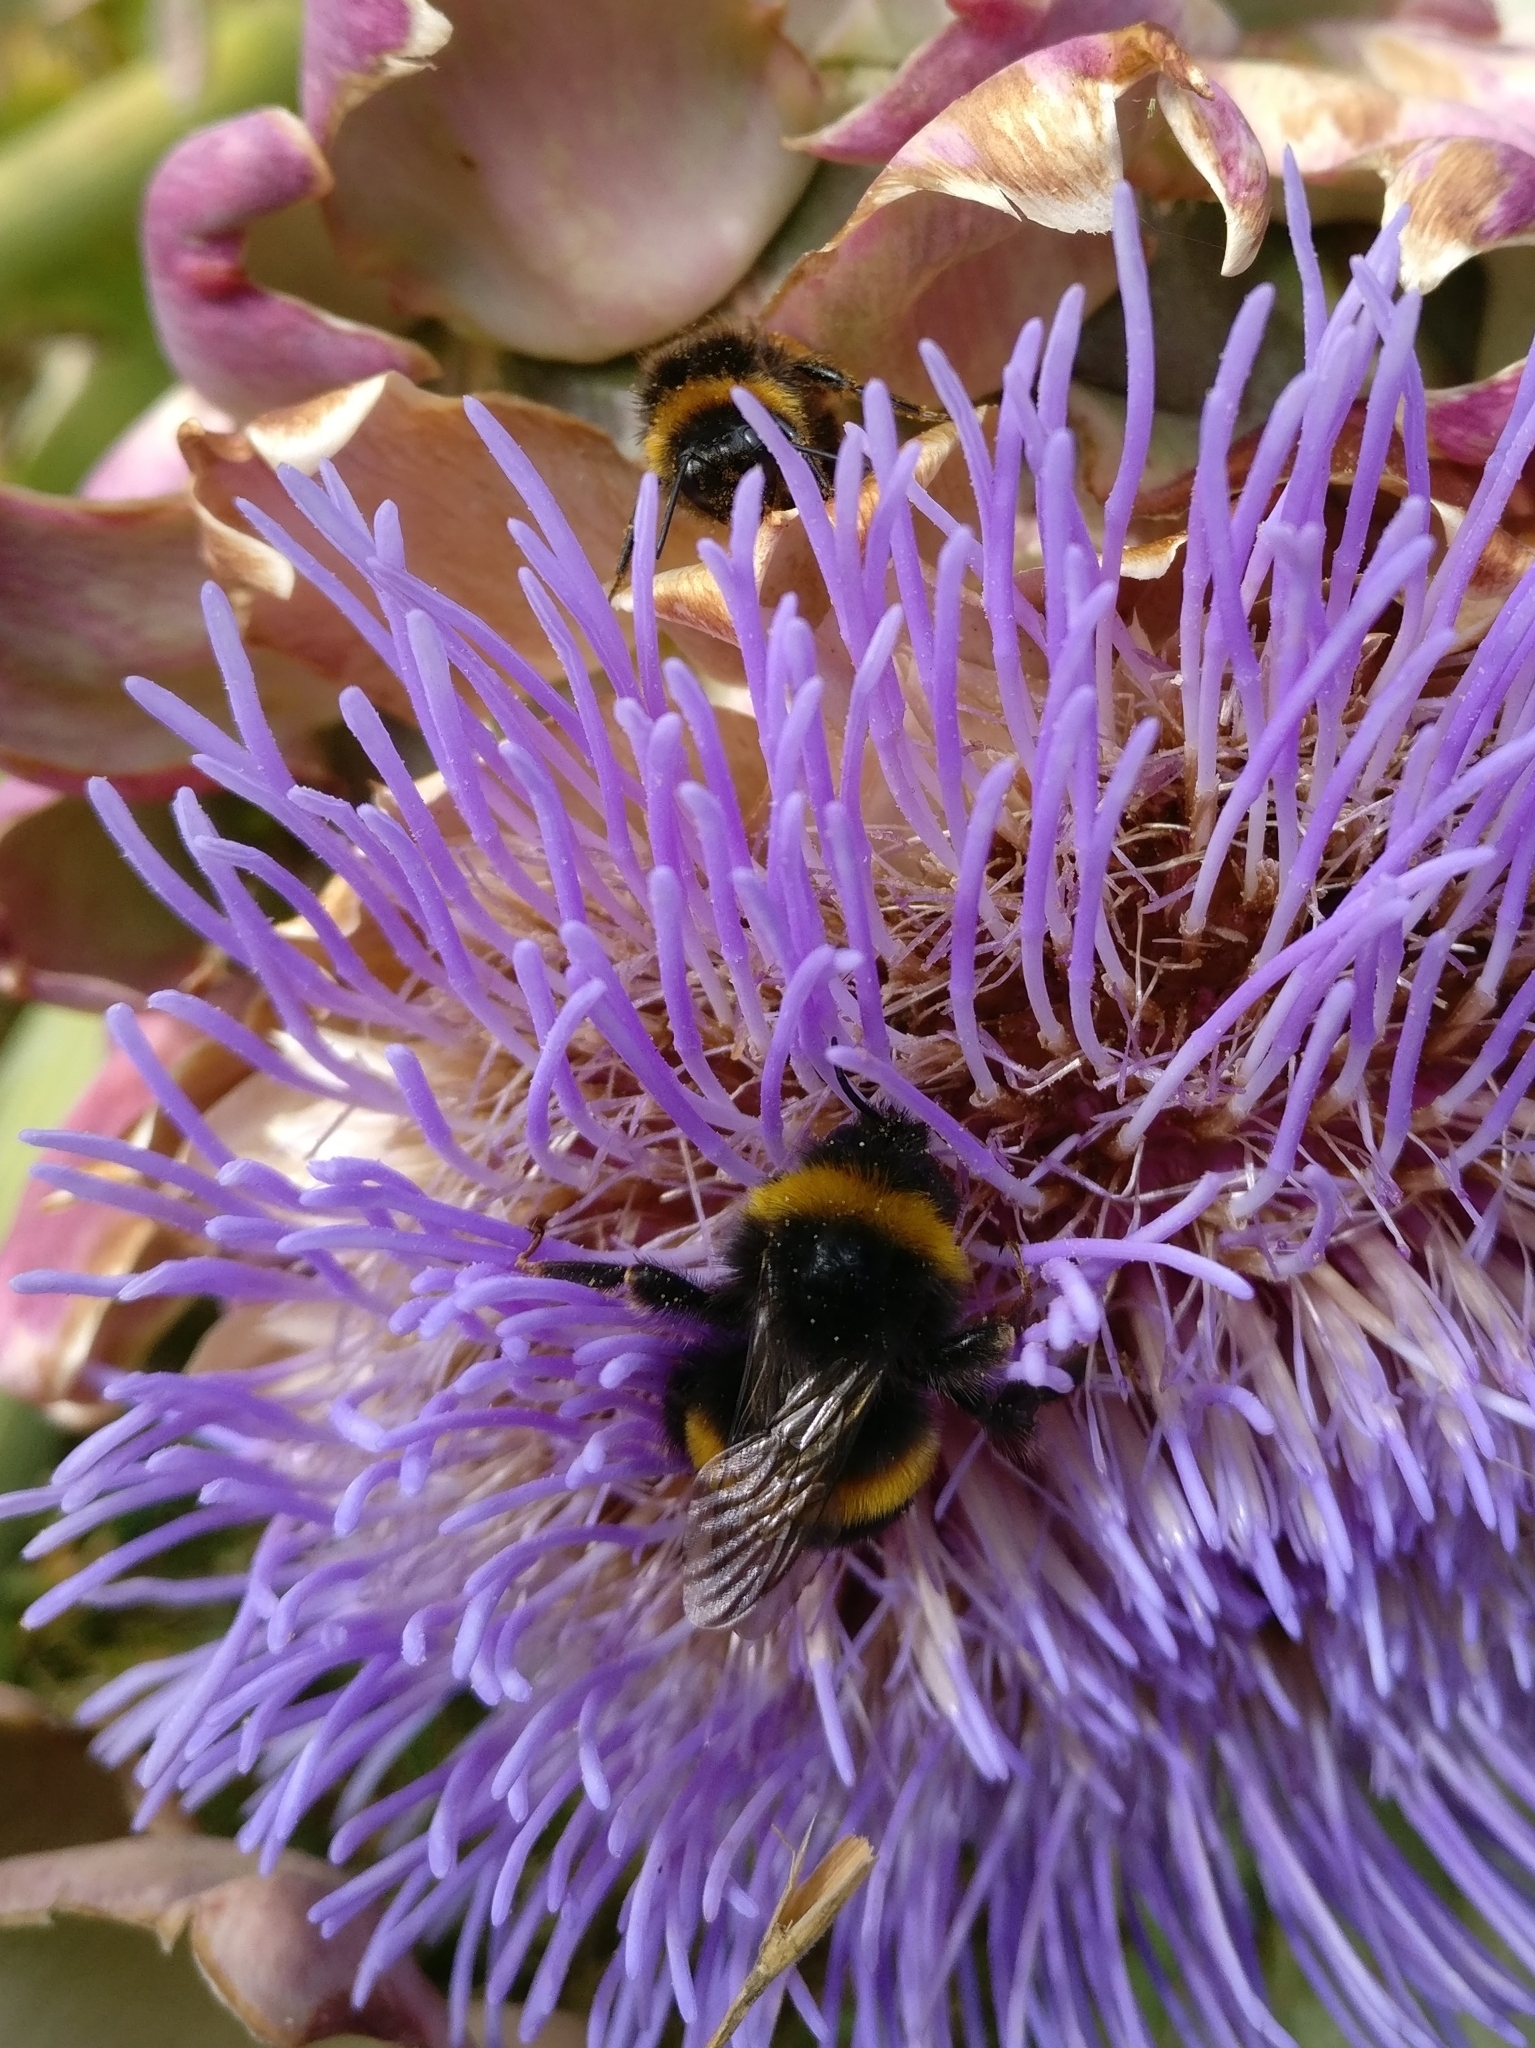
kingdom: Animalia
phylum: Arthropoda
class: Insecta
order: Hymenoptera
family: Apidae
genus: Bombus
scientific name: Bombus terrestris
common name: Buff-tailed bumblebee
